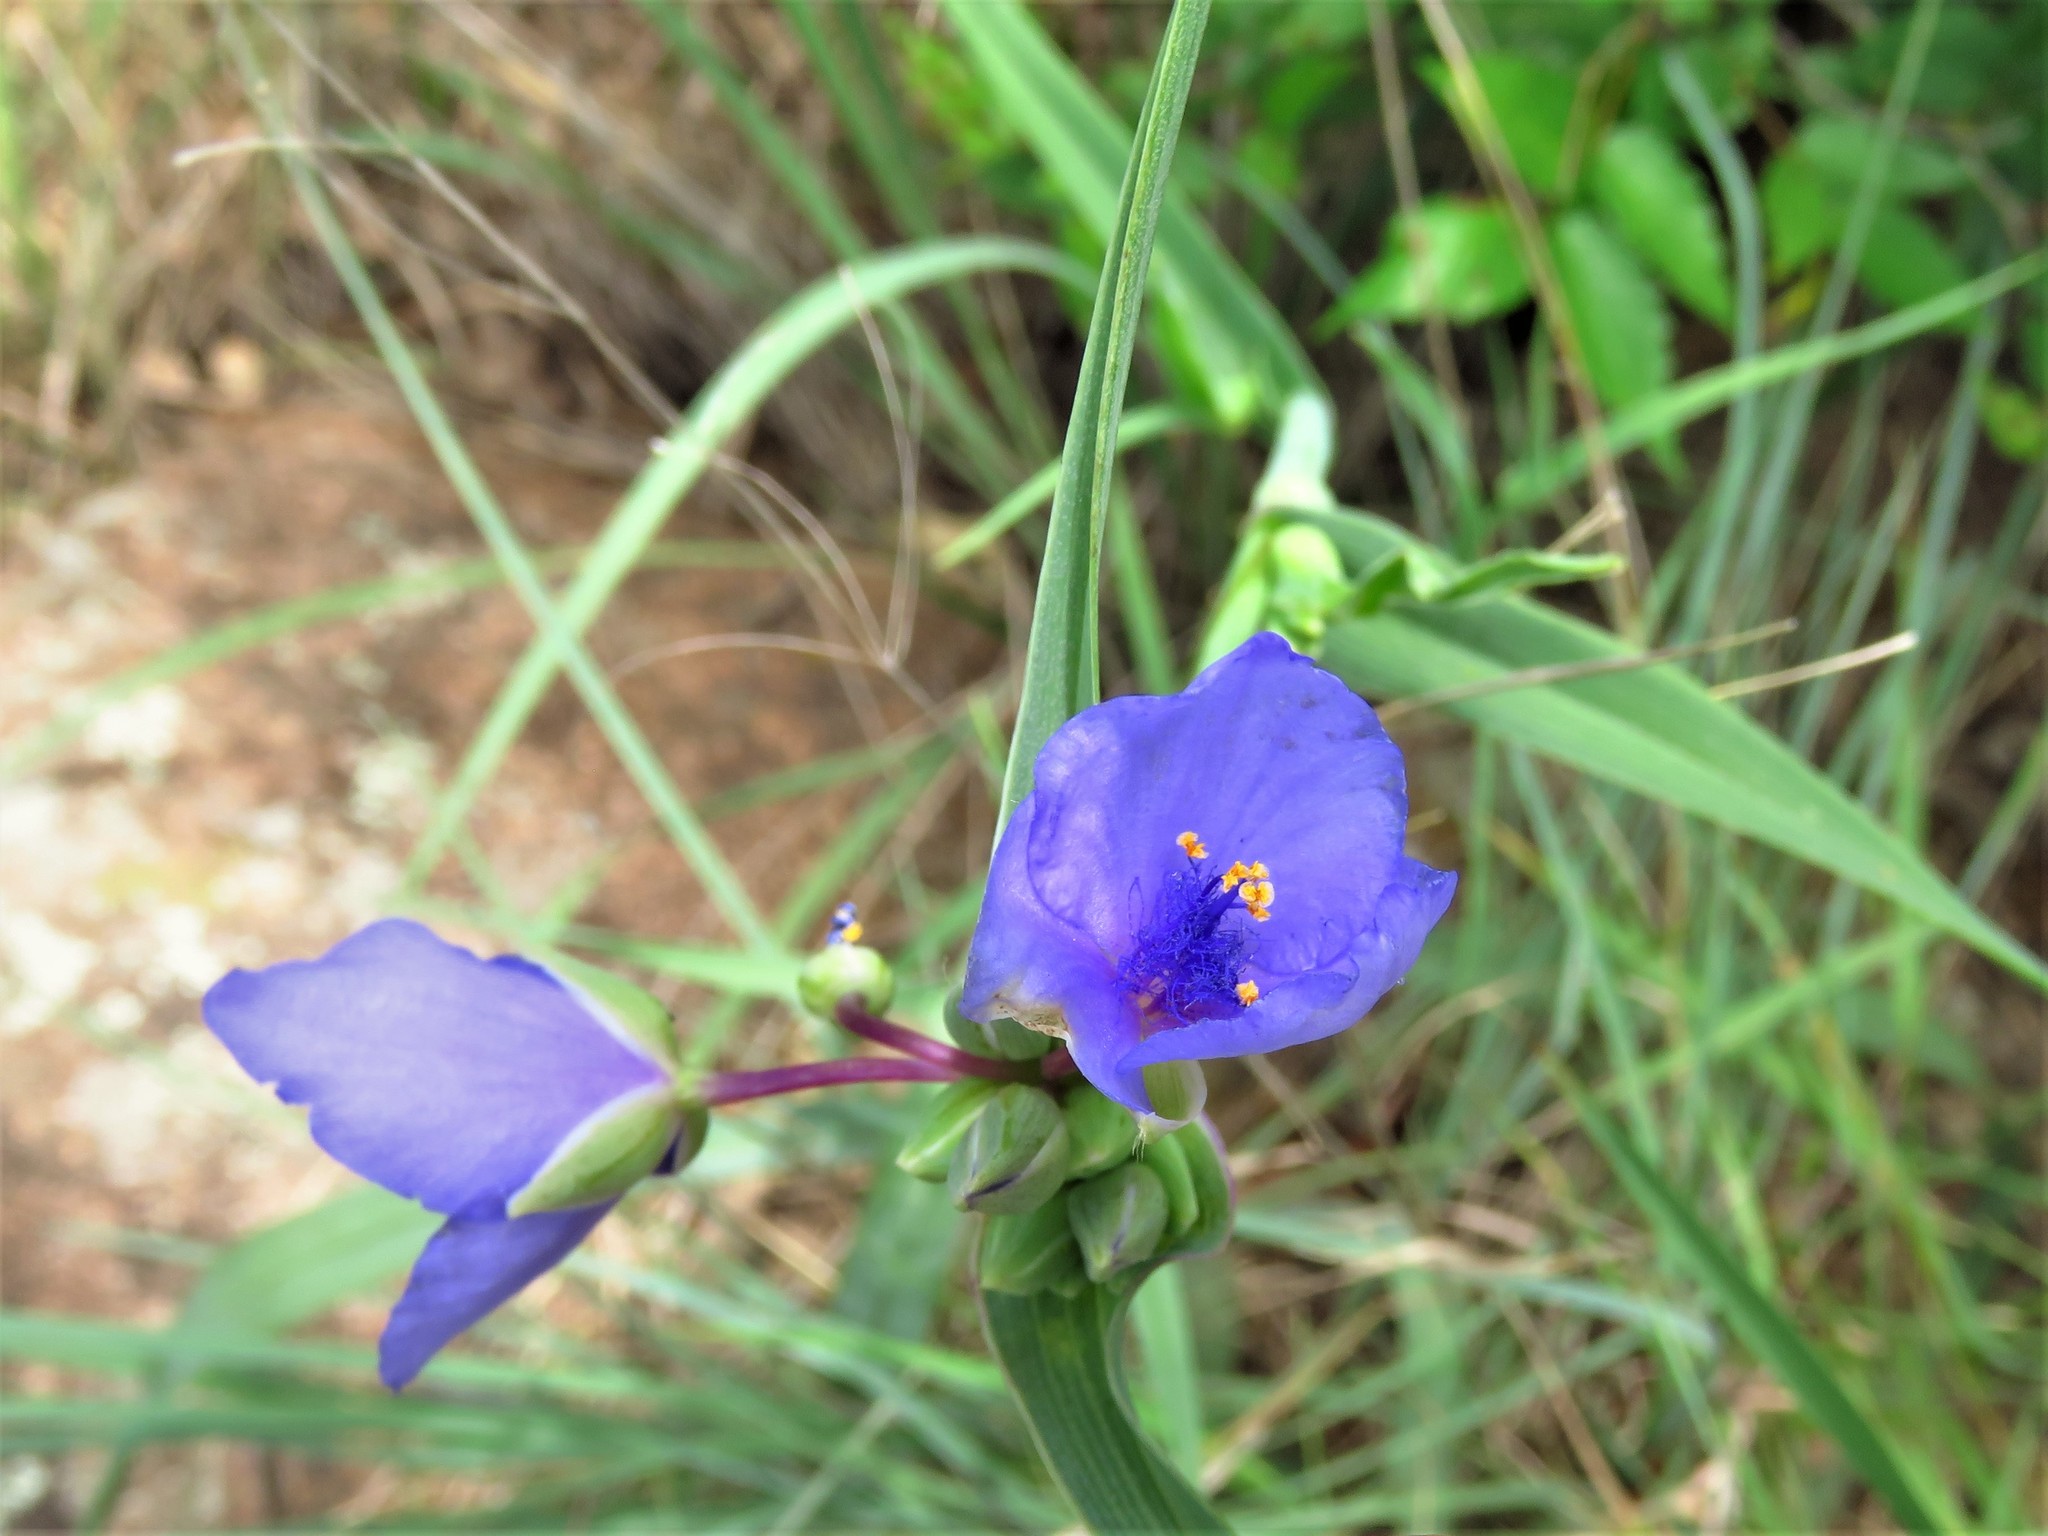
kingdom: Plantae
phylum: Tracheophyta
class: Liliopsida
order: Commelinales
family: Commelinaceae
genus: Tradescantia
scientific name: Tradescantia ohiensis
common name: Ohio spiderwort
